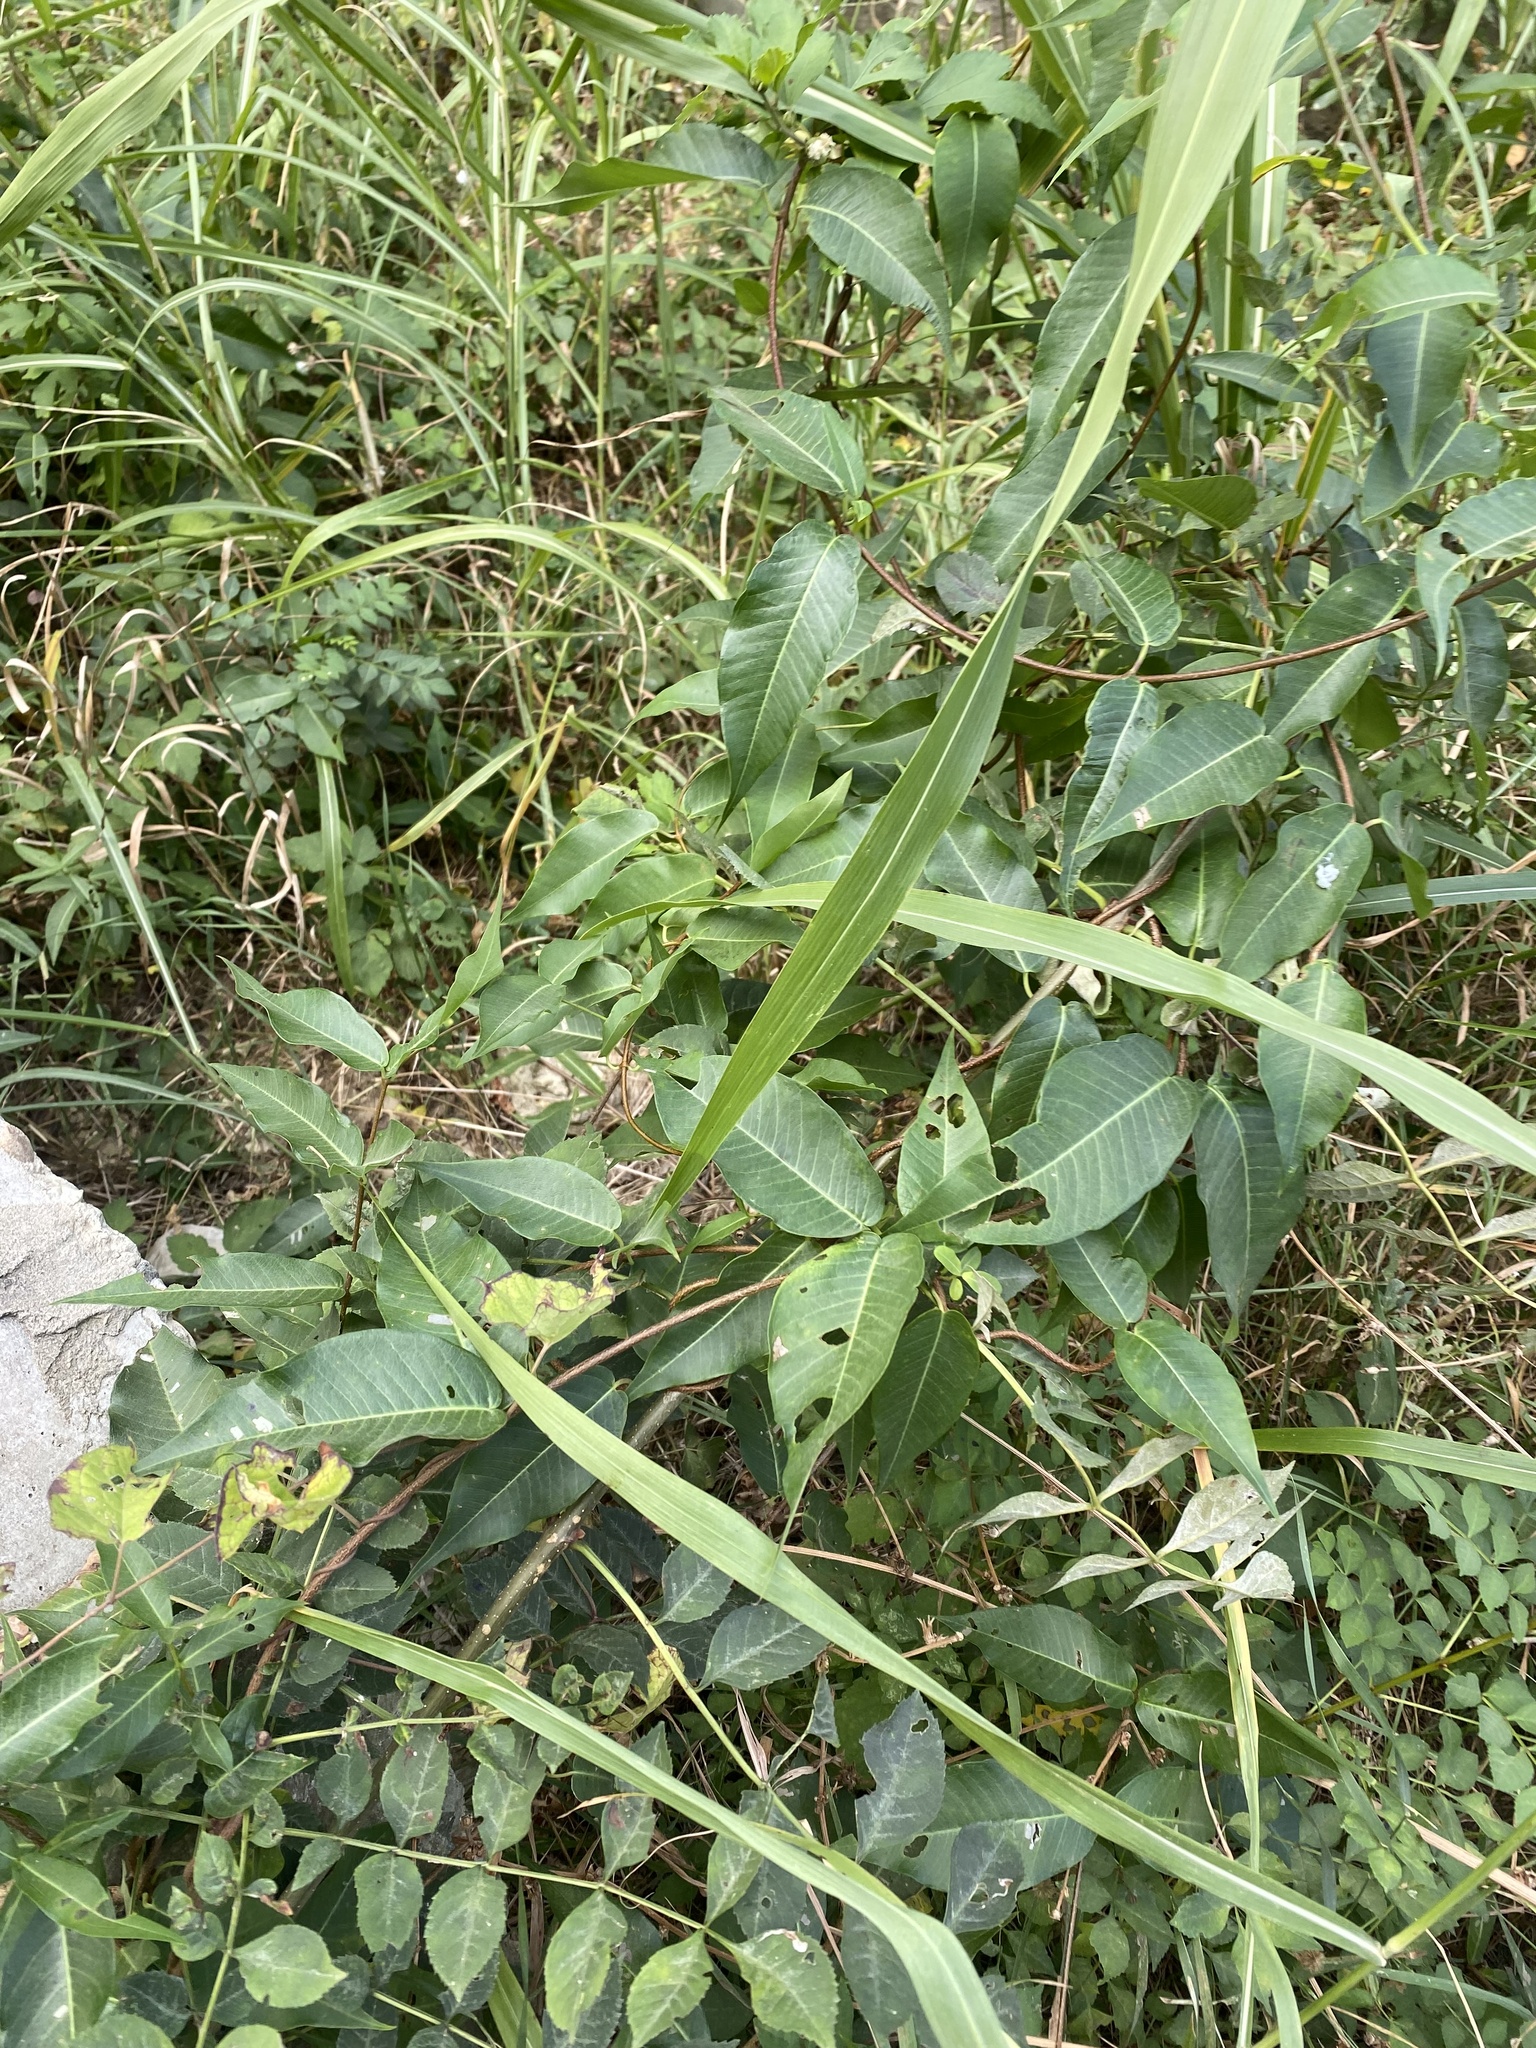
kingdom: Plantae
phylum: Tracheophyta
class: Magnoliopsida
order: Gentianales
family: Apocynaceae
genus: Periploca
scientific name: Periploca graeca
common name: Silkvine
